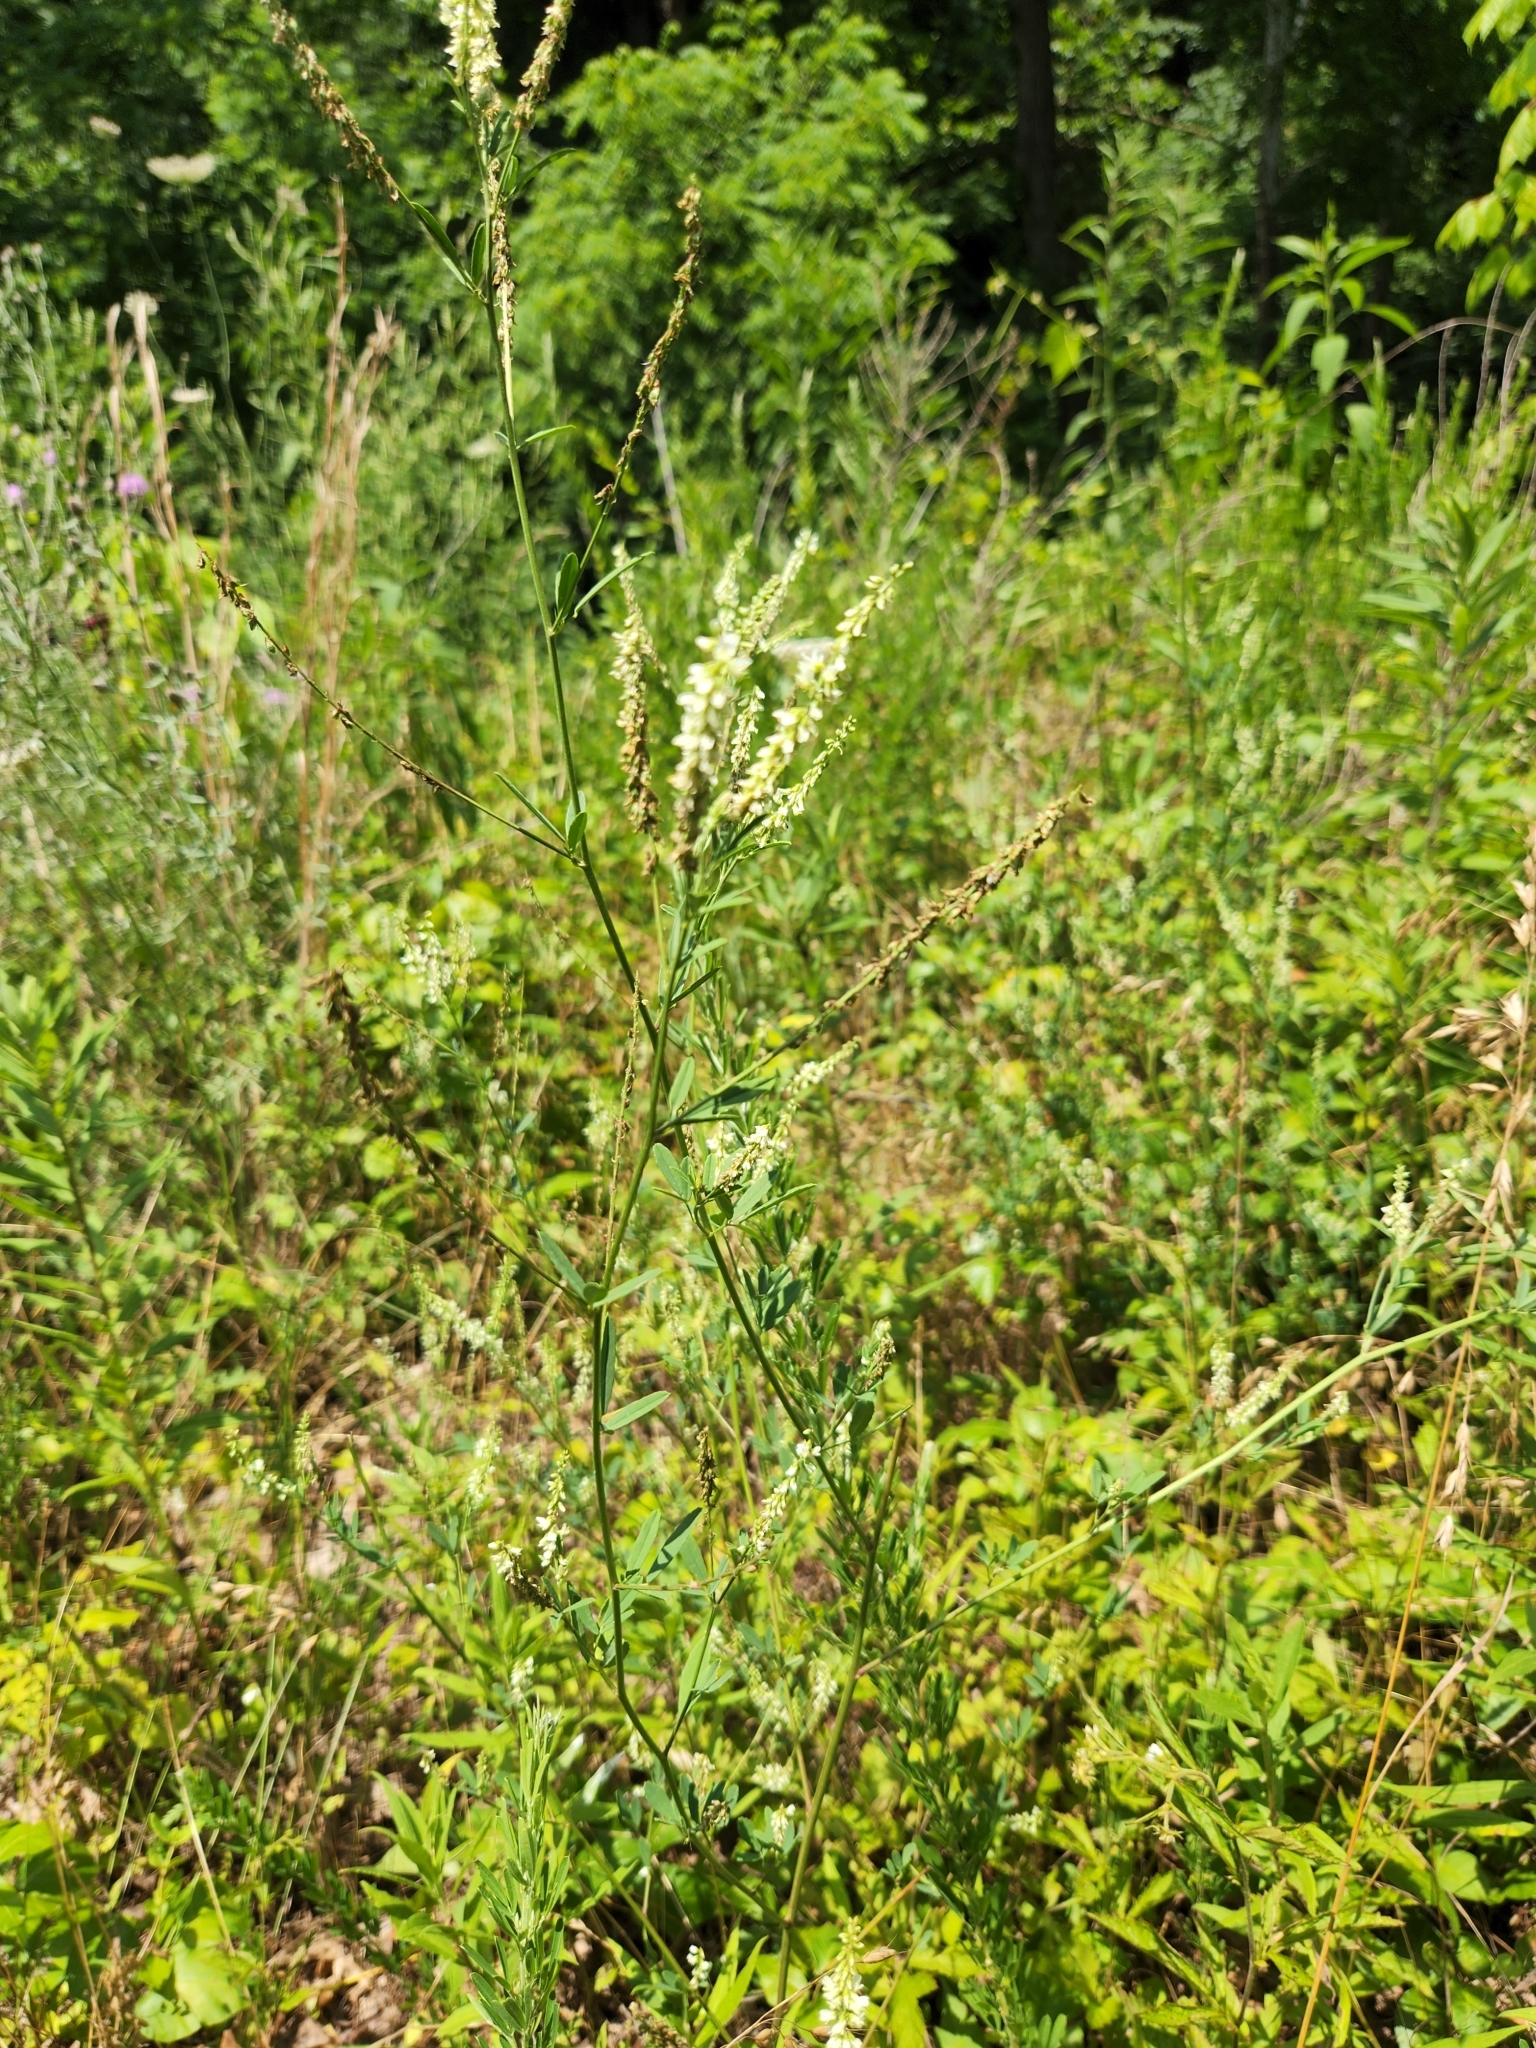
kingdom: Plantae
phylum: Tracheophyta
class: Magnoliopsida
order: Fabales
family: Fabaceae
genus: Melilotus
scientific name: Melilotus albus
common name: White melilot
